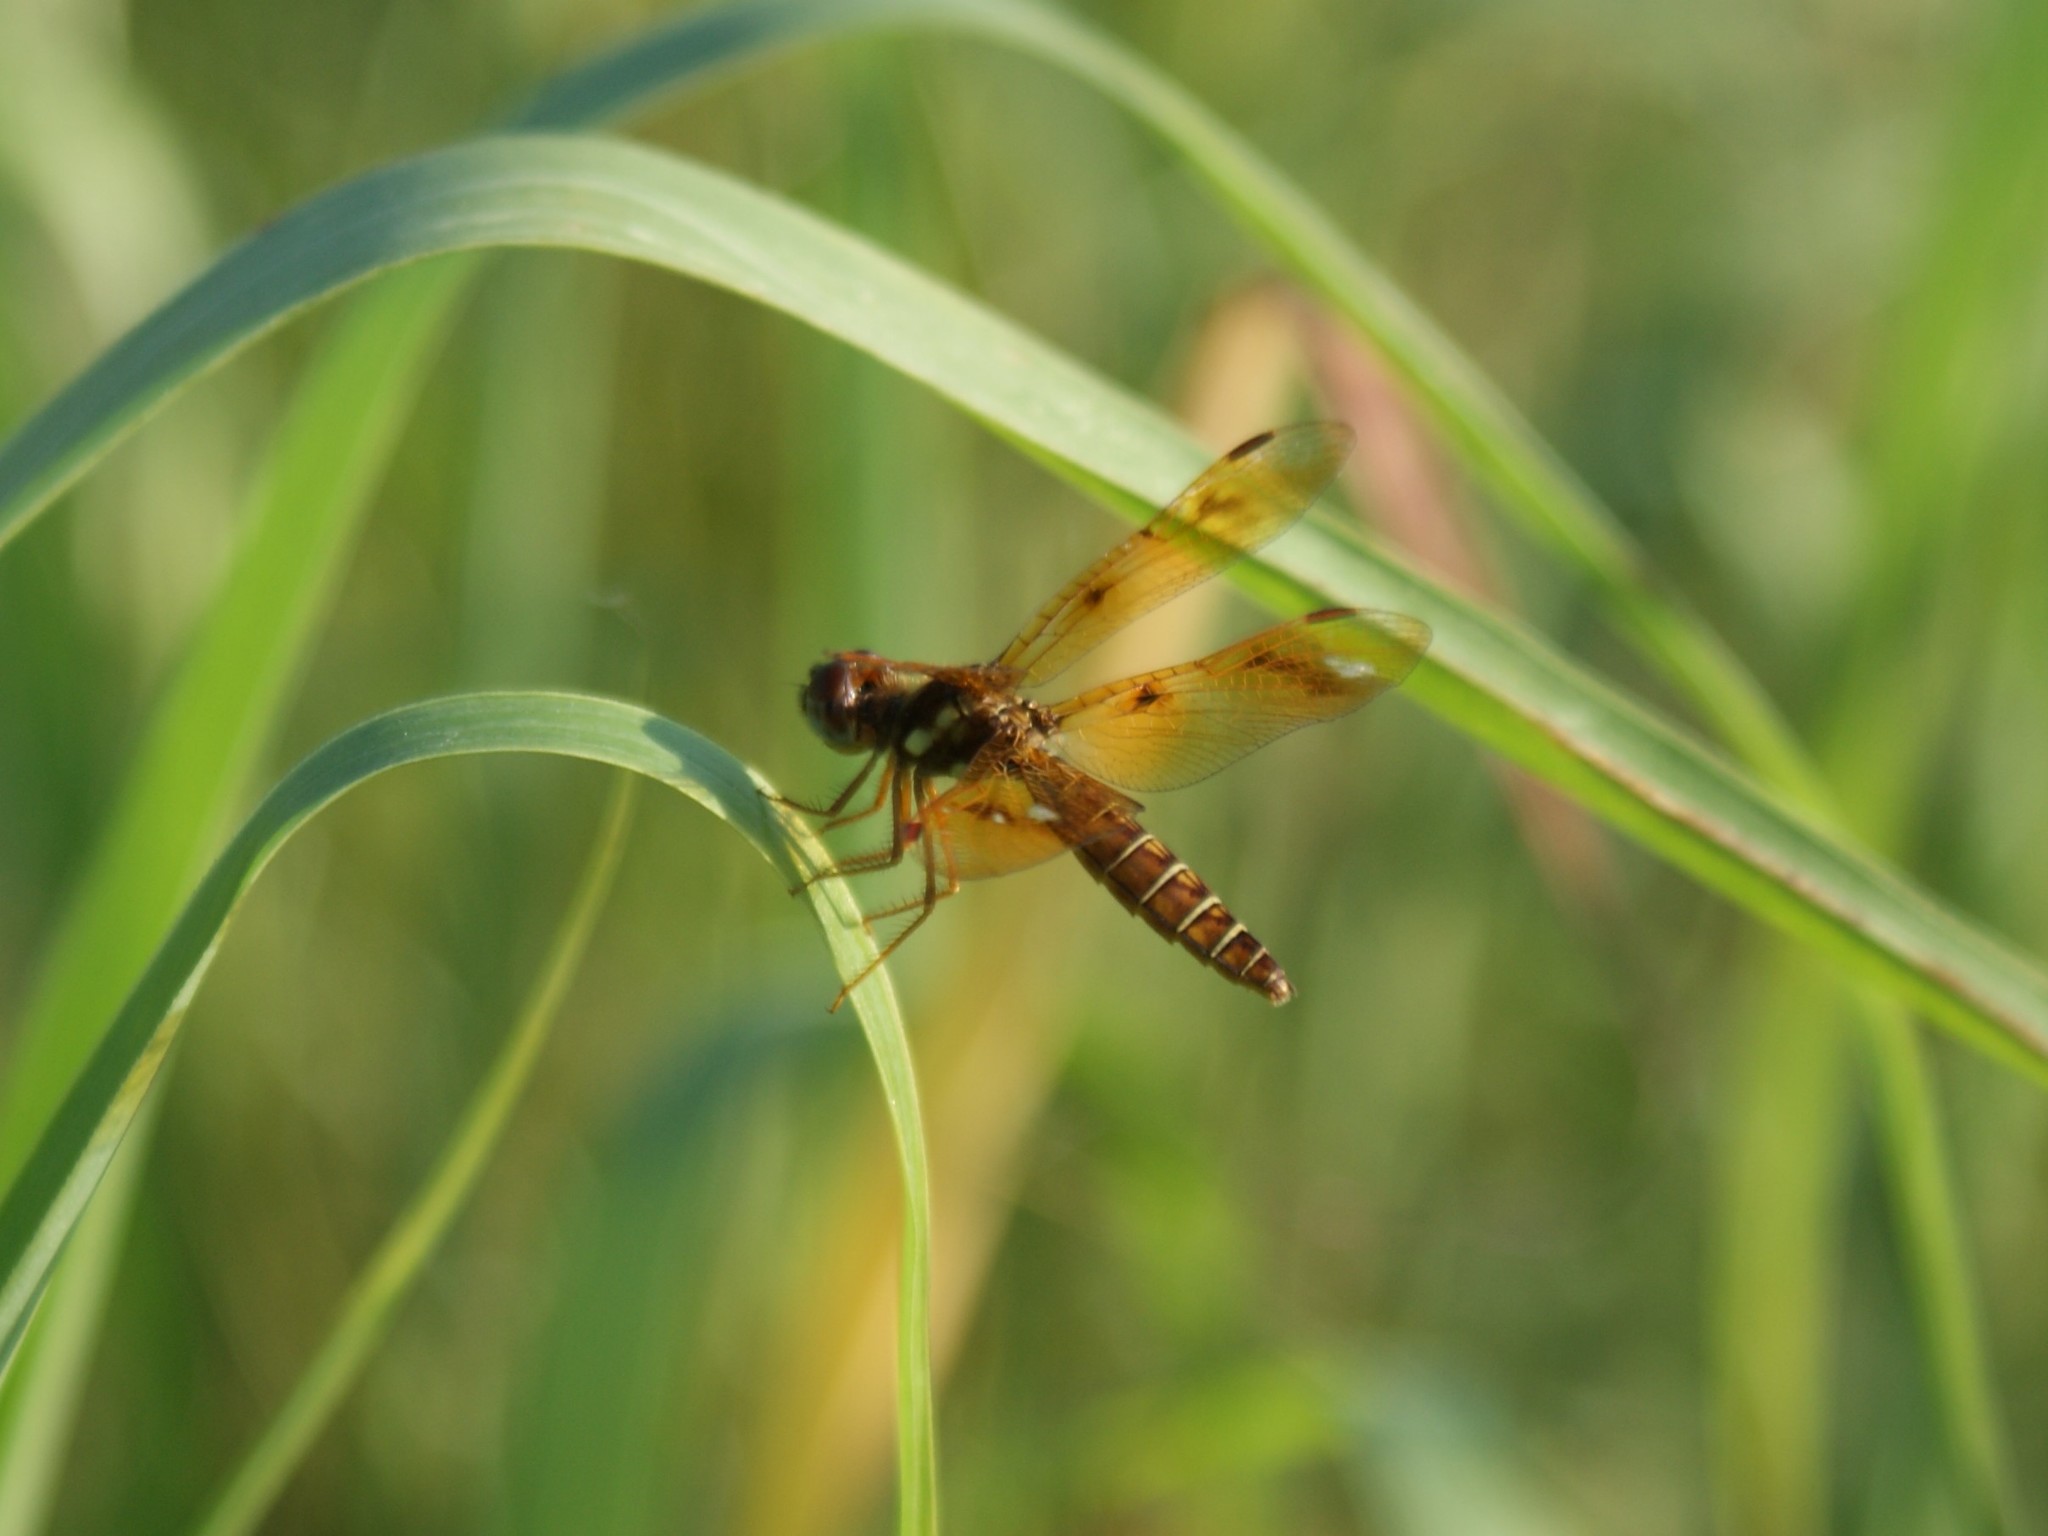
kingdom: Animalia
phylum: Arthropoda
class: Insecta
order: Odonata
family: Libellulidae
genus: Perithemis
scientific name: Perithemis tenera
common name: Eastern amberwing
